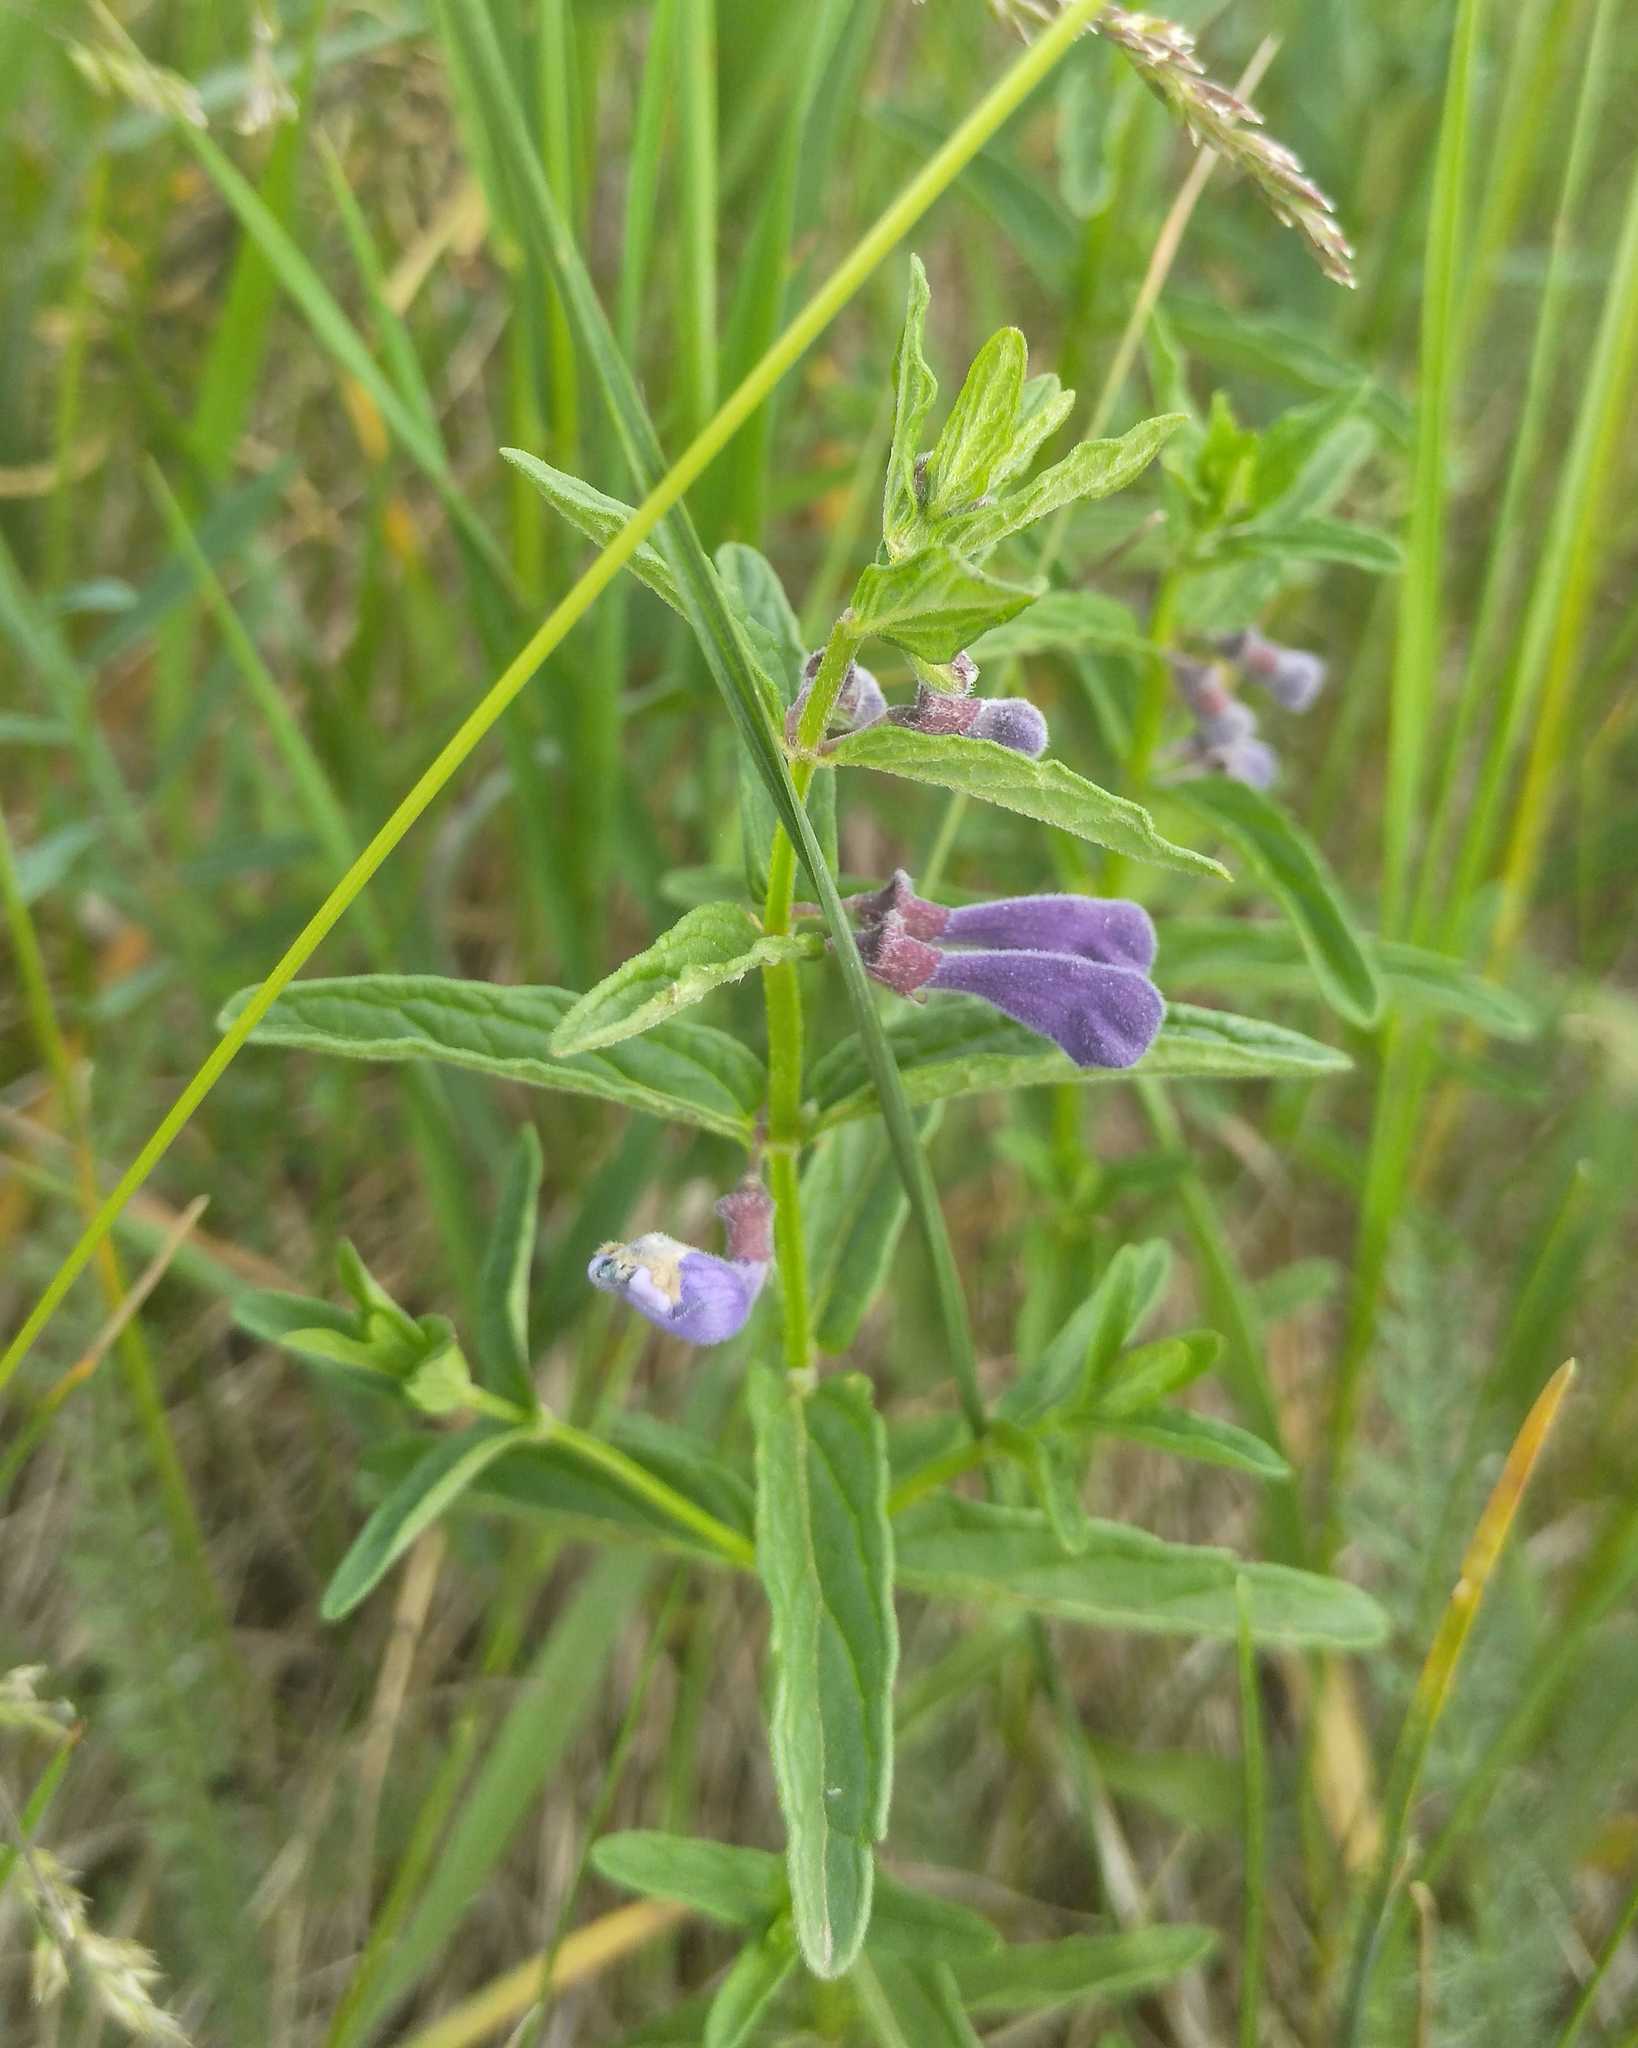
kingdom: Plantae
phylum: Tracheophyta
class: Magnoliopsida
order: Lamiales
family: Lamiaceae
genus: Scutellaria
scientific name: Scutellaria scordiifolia
